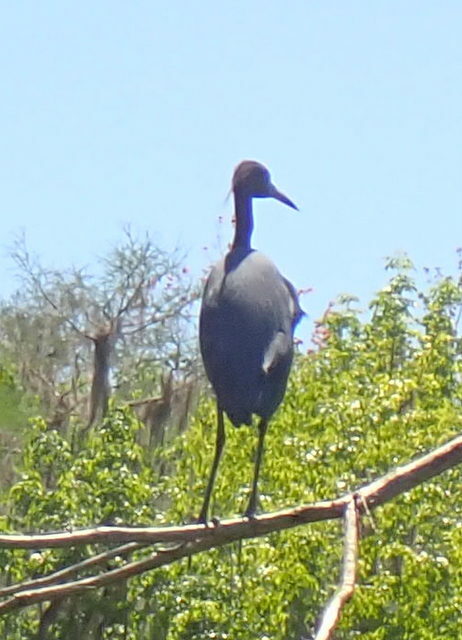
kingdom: Animalia
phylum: Chordata
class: Aves
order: Pelecaniformes
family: Ardeidae
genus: Egretta
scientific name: Egretta caerulea
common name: Little blue heron
